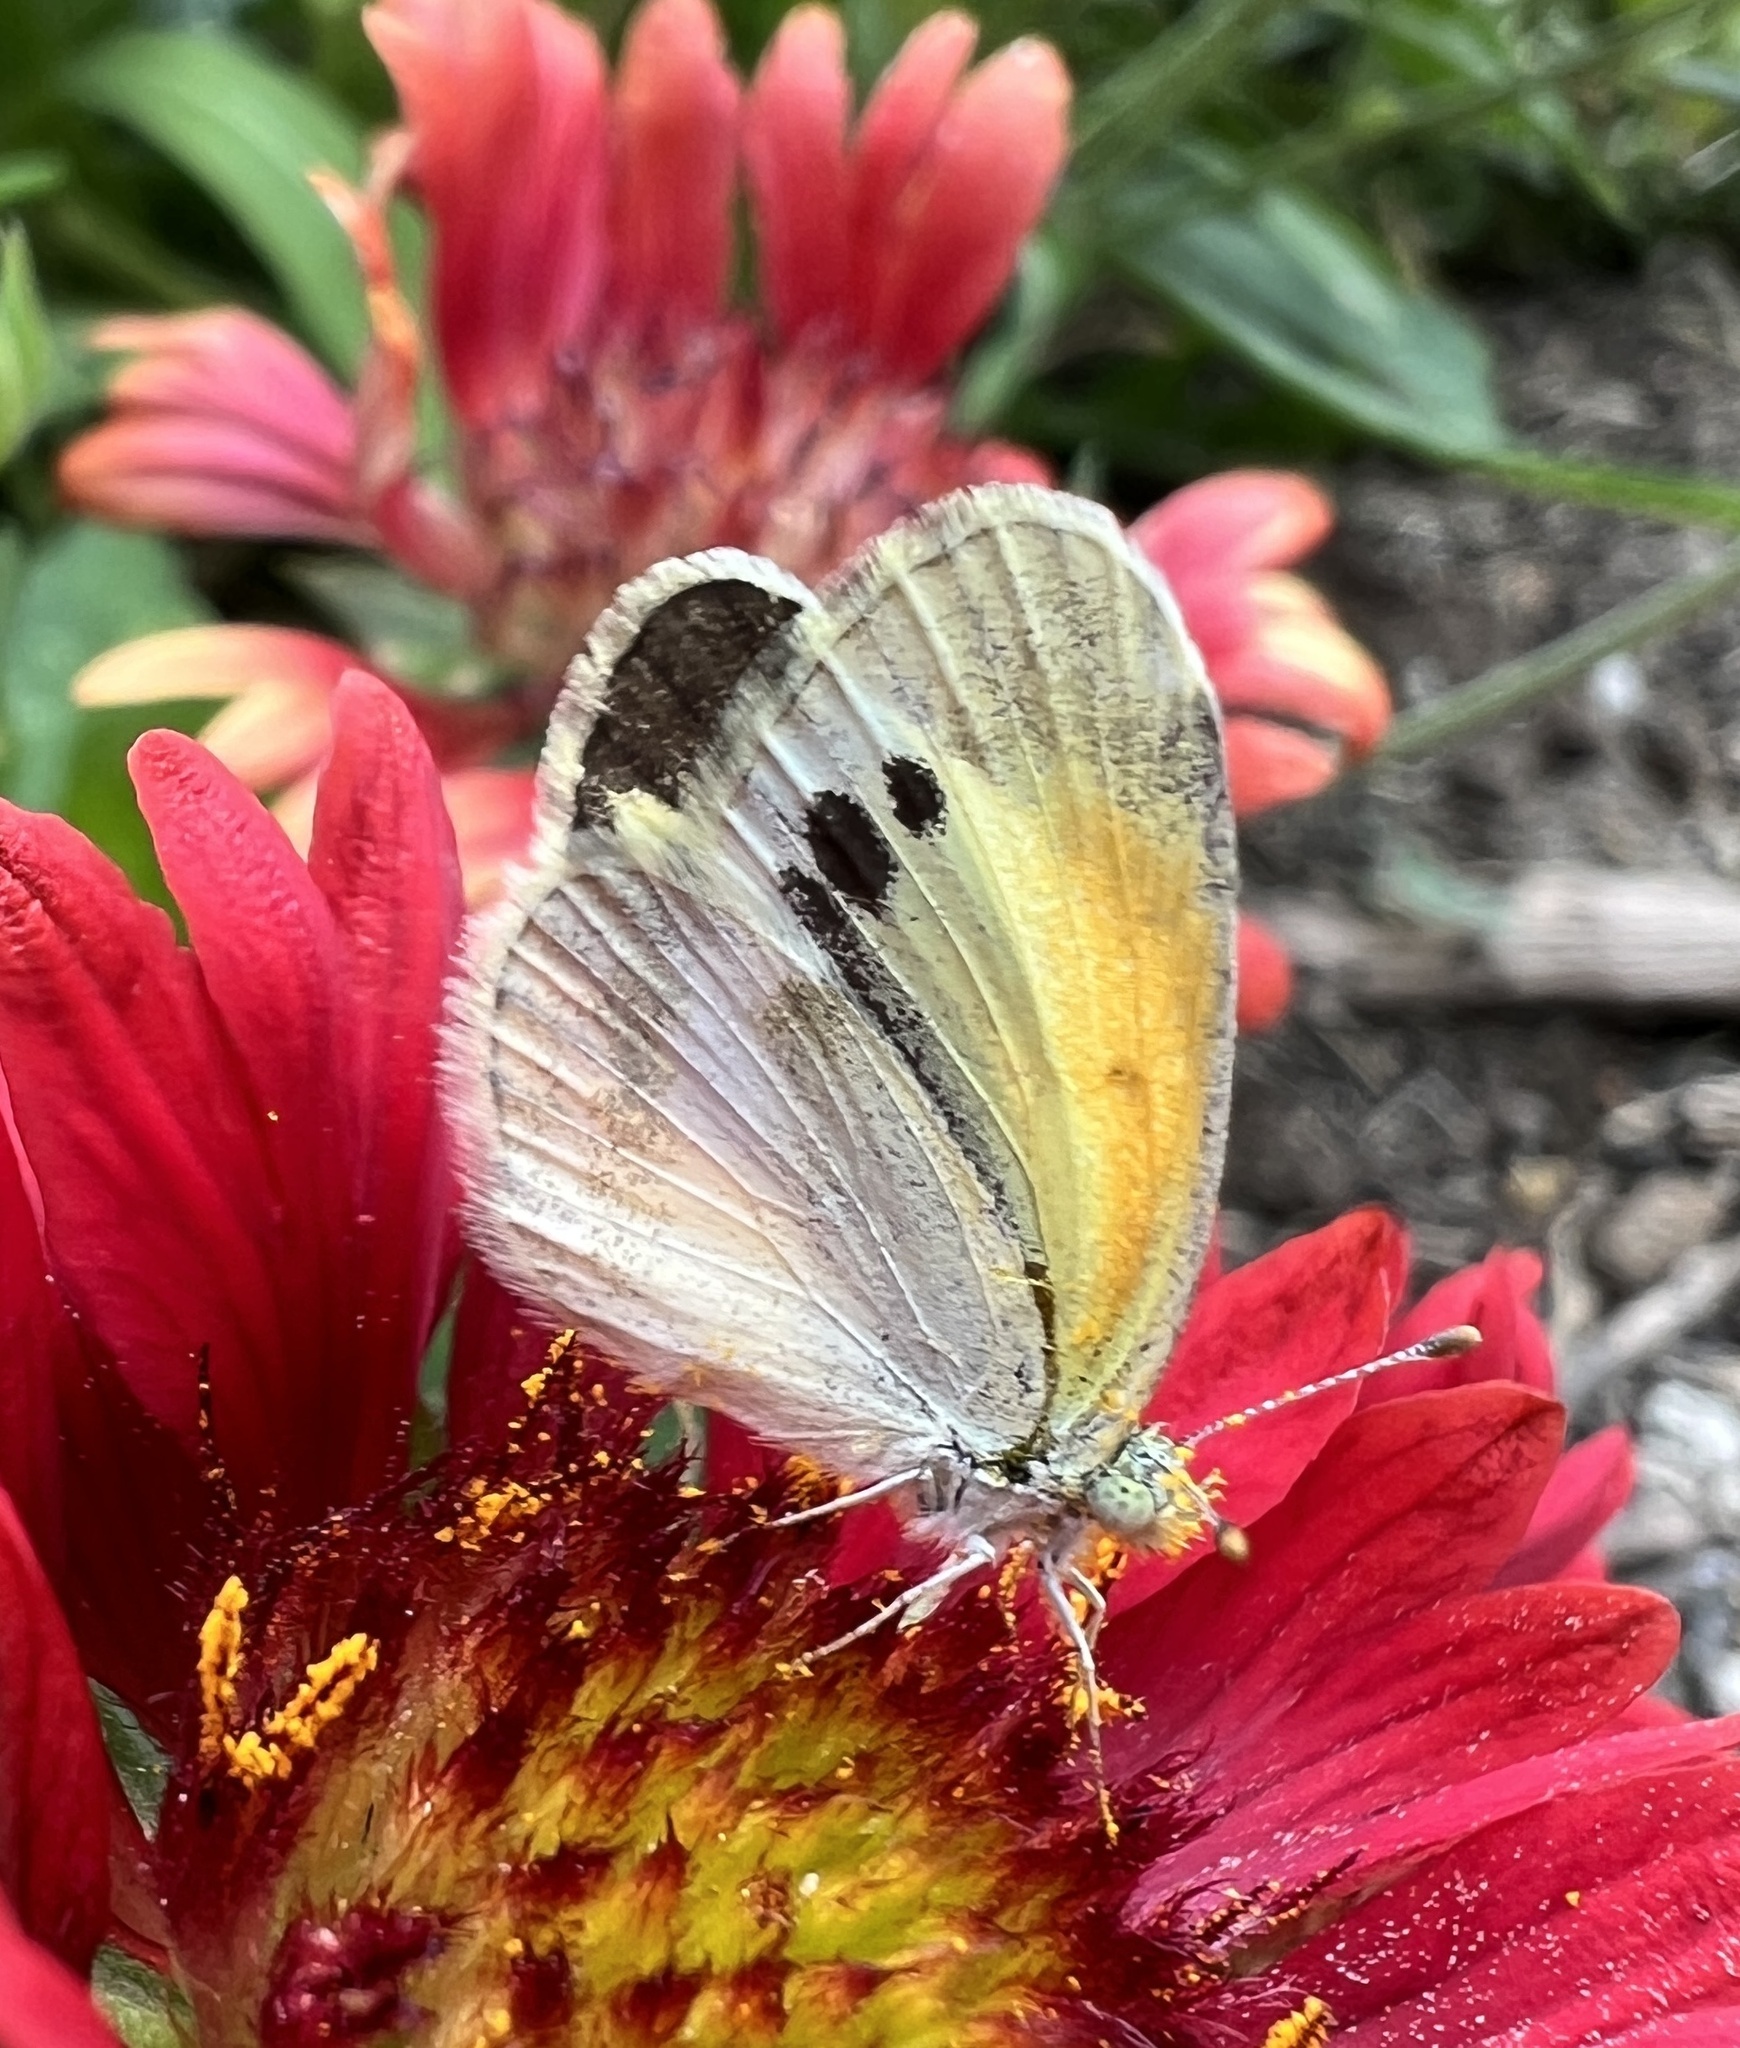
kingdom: Animalia
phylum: Arthropoda
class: Insecta
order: Lepidoptera
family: Pieridae
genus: Nathalis
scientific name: Nathalis iole
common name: Dainty sulphur
